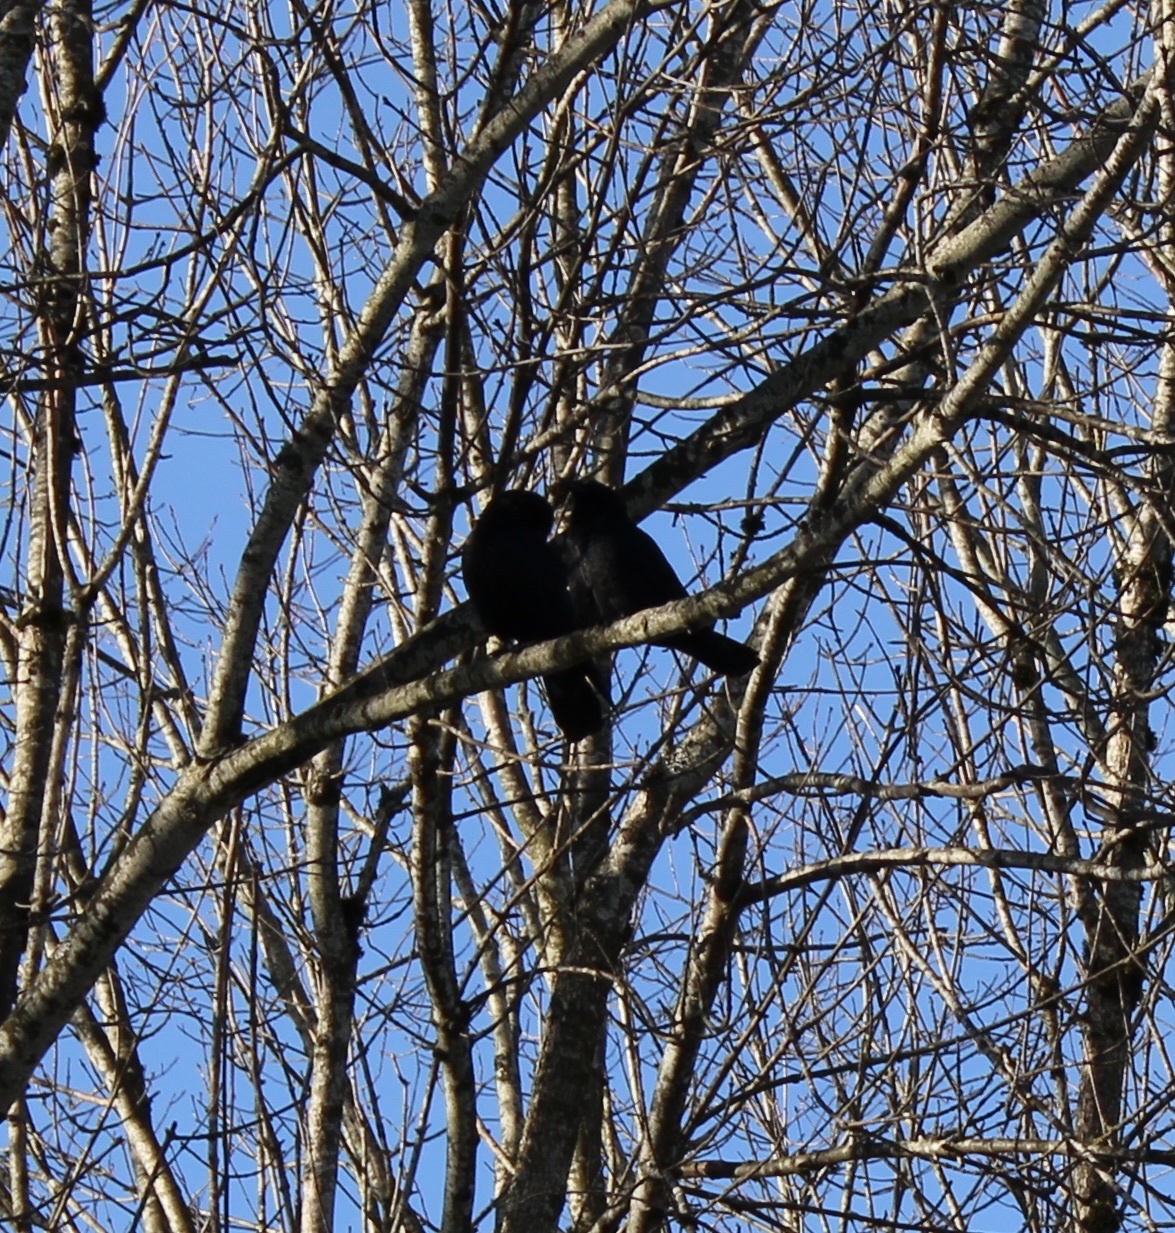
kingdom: Animalia
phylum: Chordata
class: Aves
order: Passeriformes
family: Corvidae
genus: Corvus
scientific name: Corvus brachyrhynchos
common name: American crow
